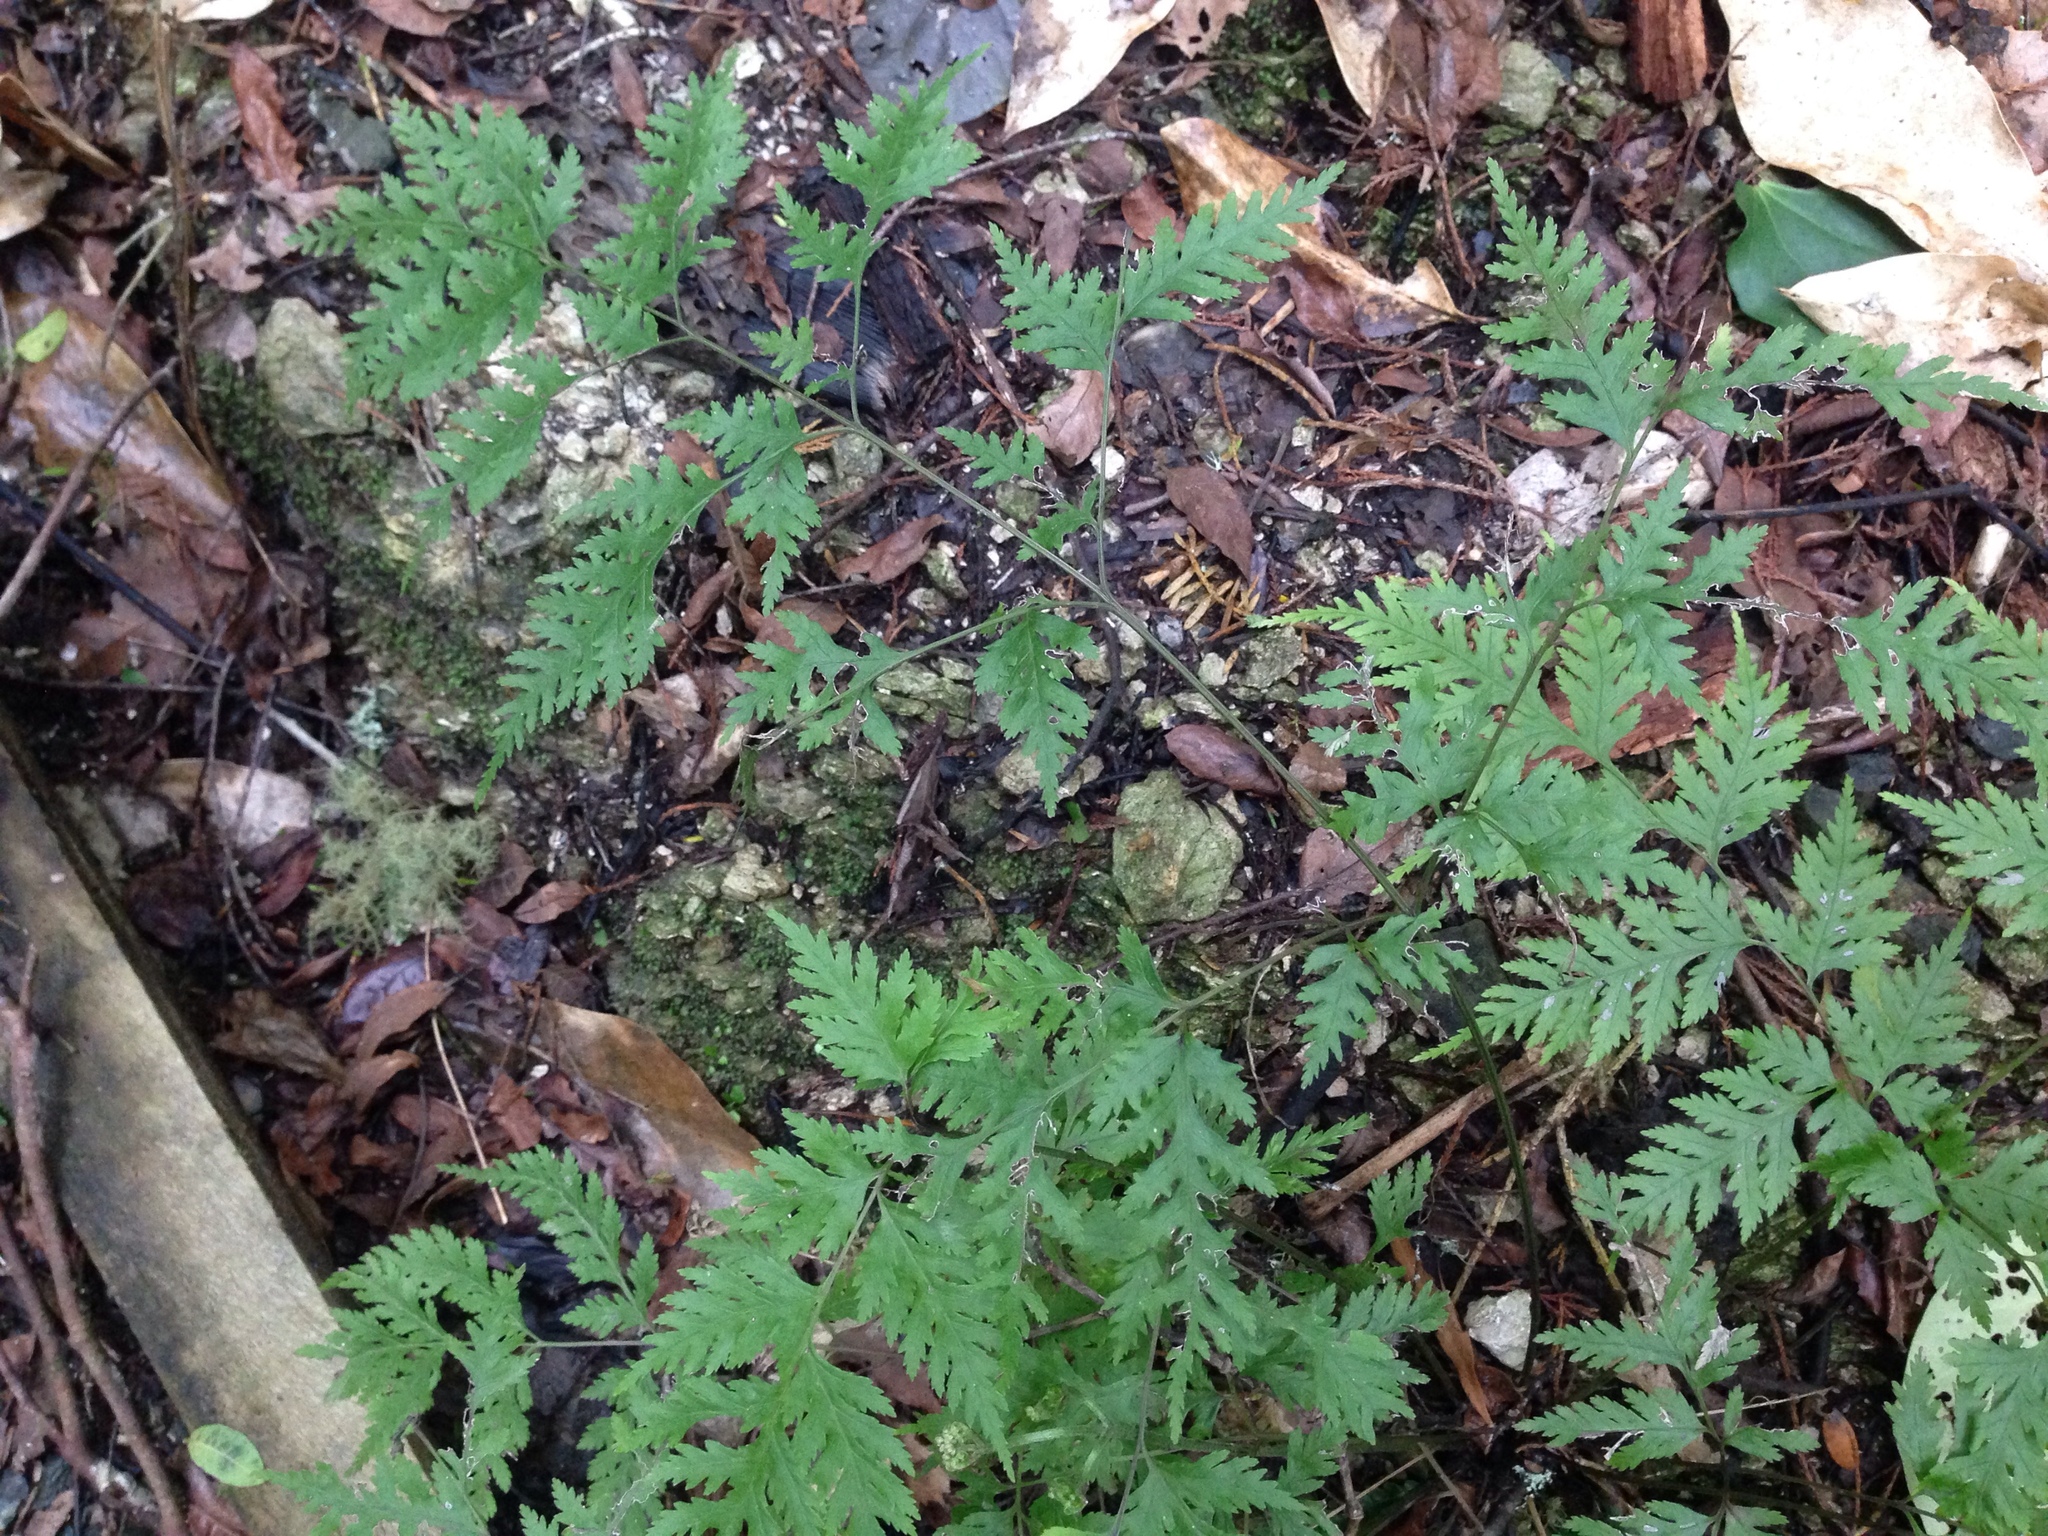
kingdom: Plantae
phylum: Tracheophyta
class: Polypodiopsida
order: Polypodiales
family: Pteridaceae
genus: Pteris
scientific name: Pteris macilenta
